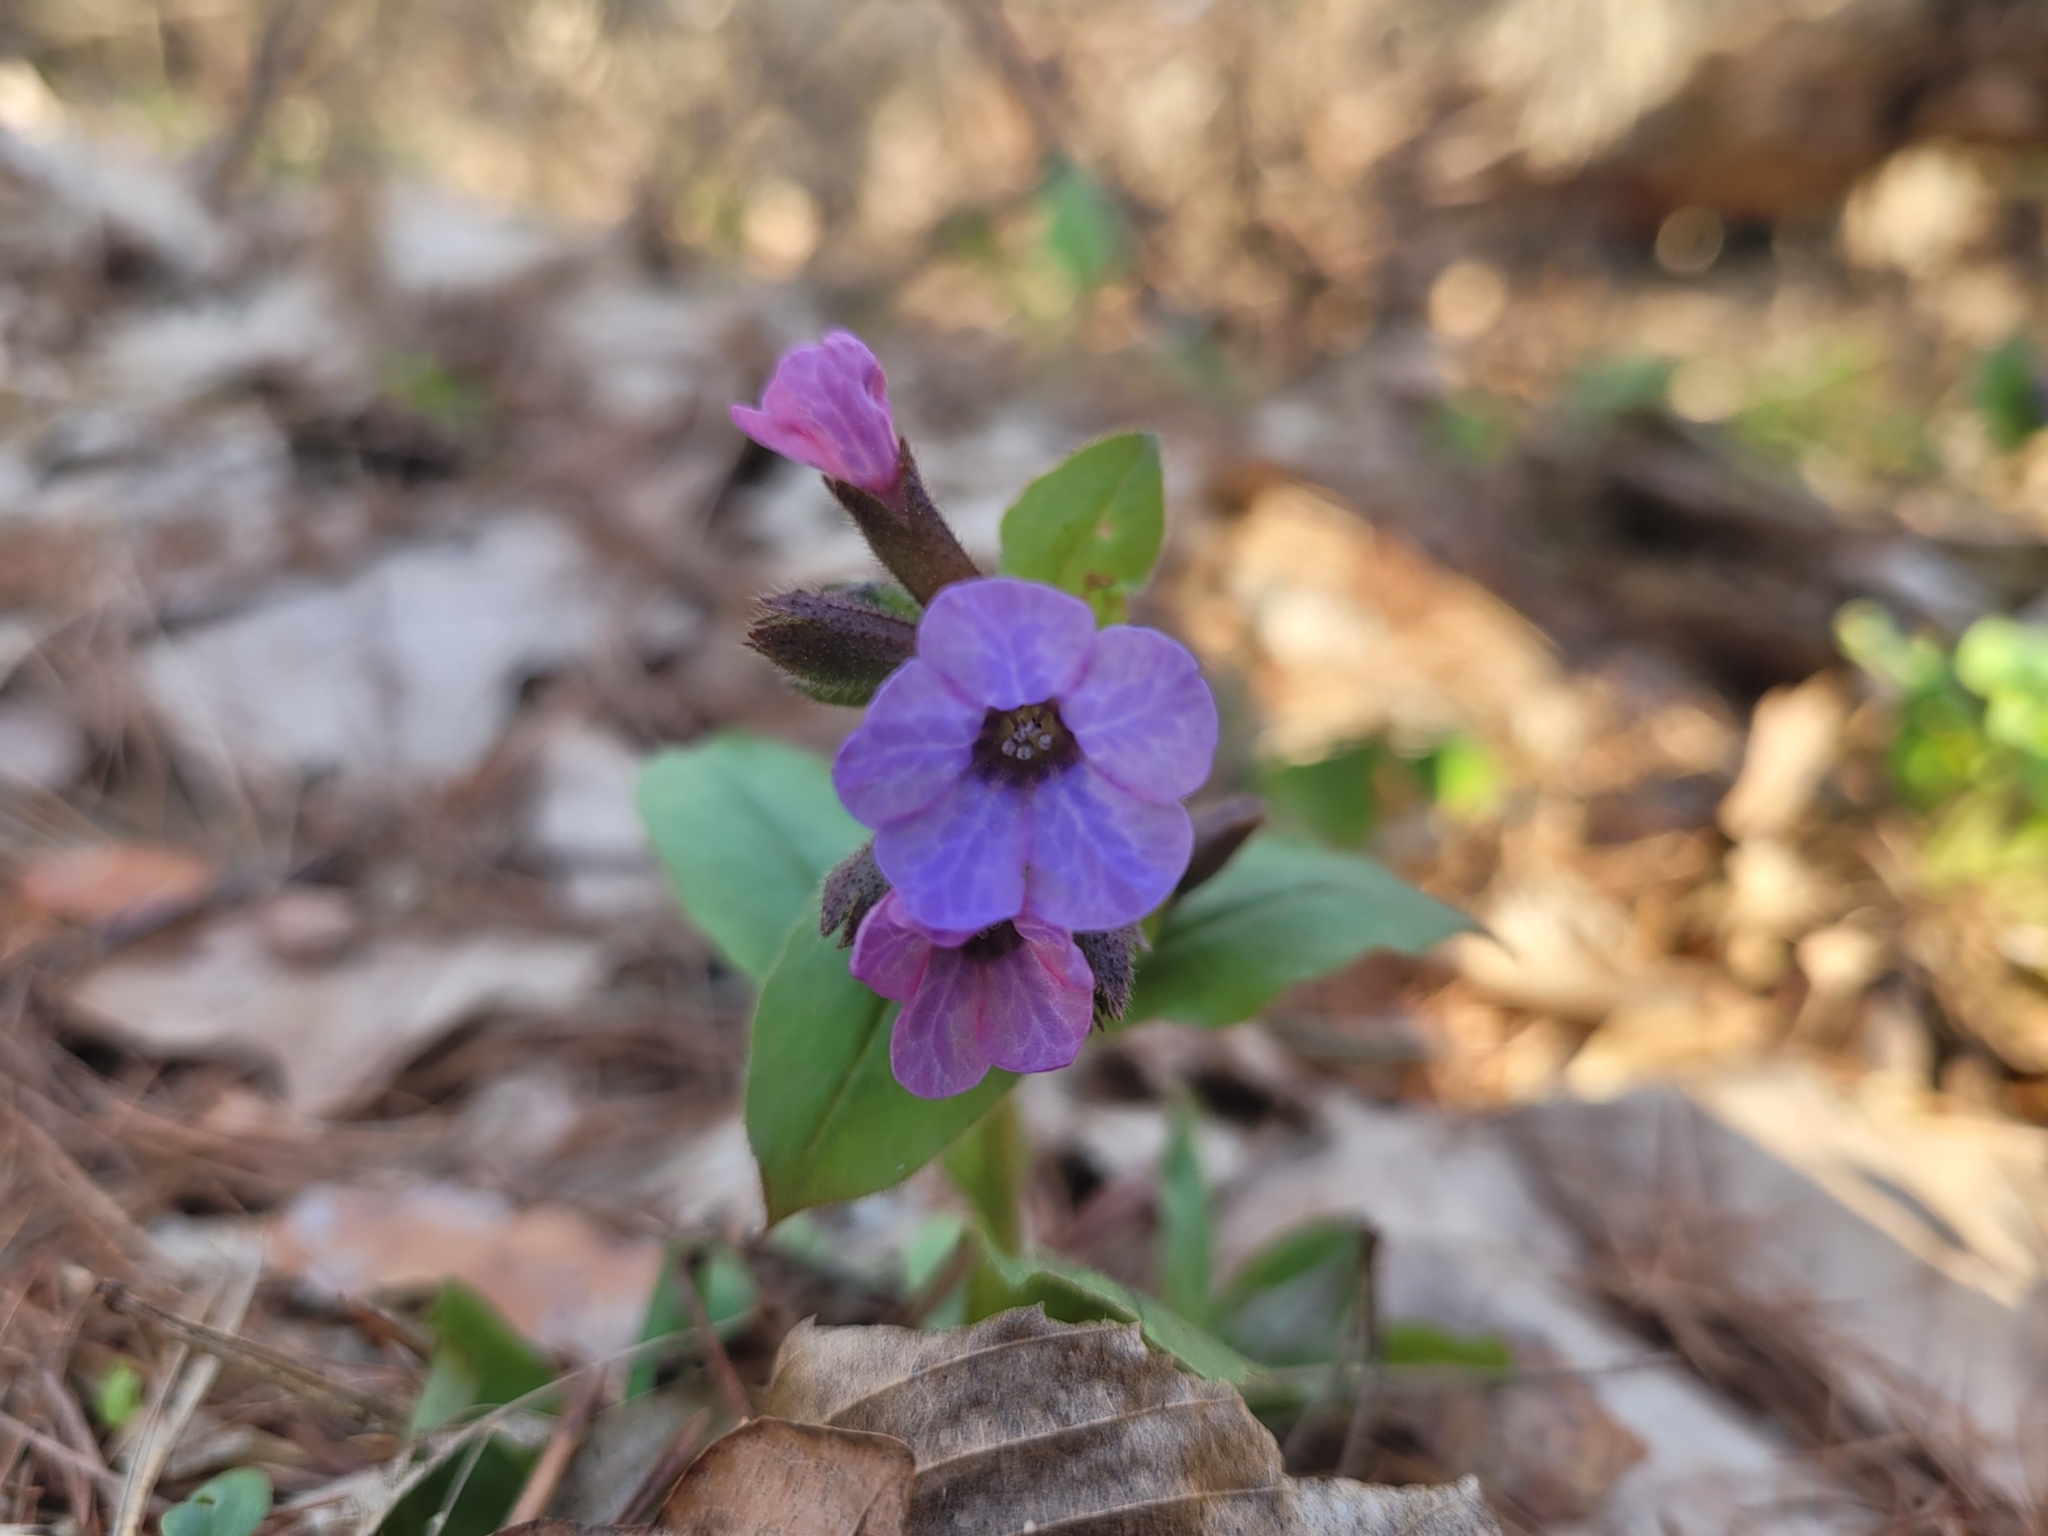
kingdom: Plantae
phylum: Tracheophyta
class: Magnoliopsida
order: Boraginales
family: Boraginaceae
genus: Pulmonaria
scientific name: Pulmonaria obscura
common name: Suffolk lungwort
